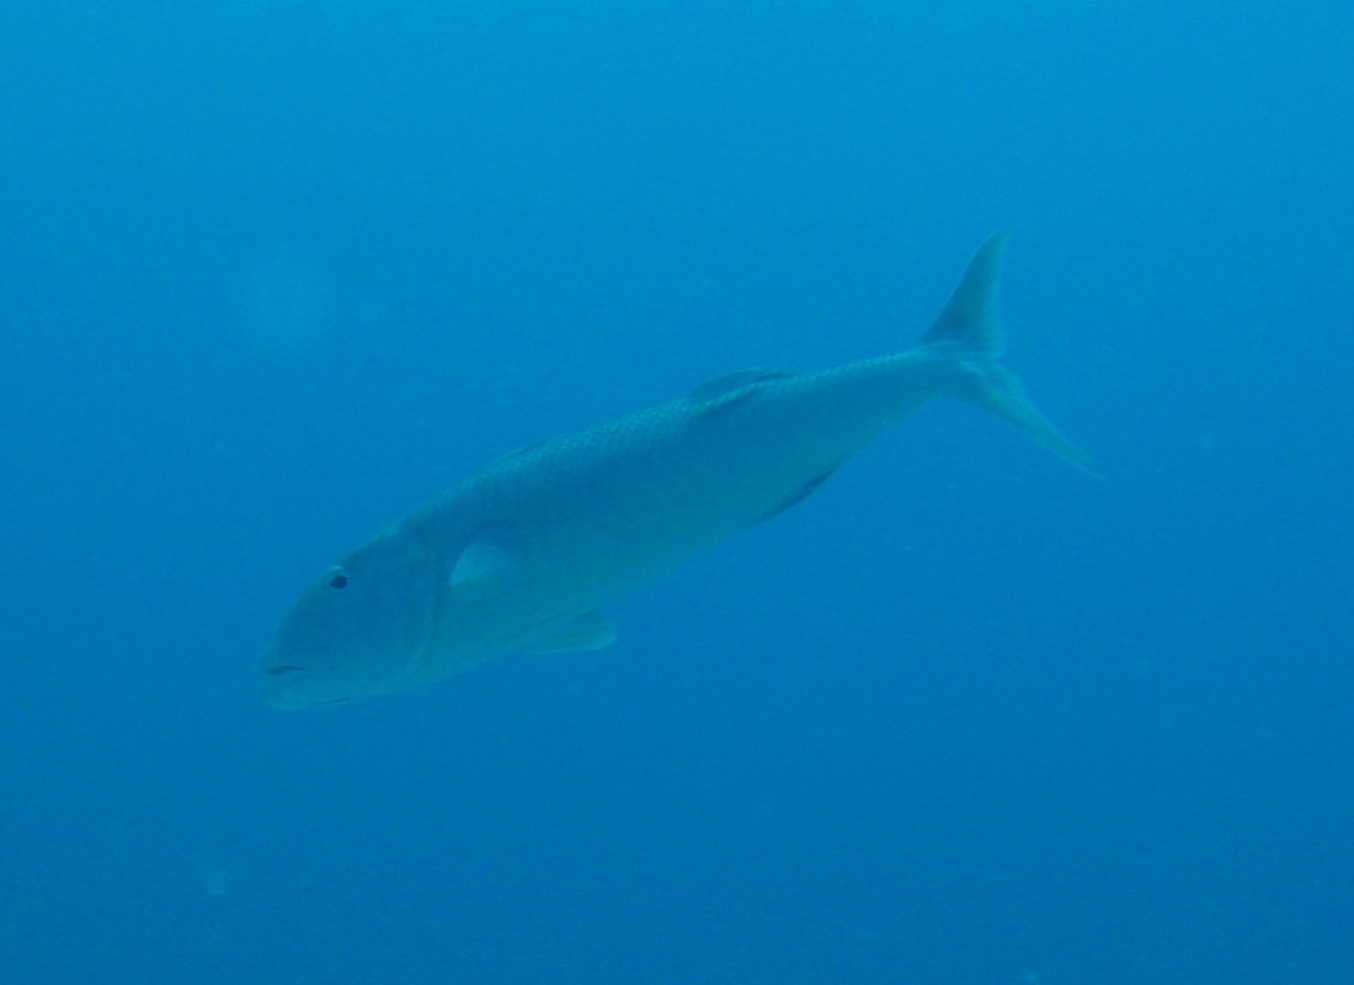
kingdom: Animalia
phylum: Chordata
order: Perciformes
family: Lutjanidae
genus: Aprion
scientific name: Aprion virescens
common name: Green jobfish
